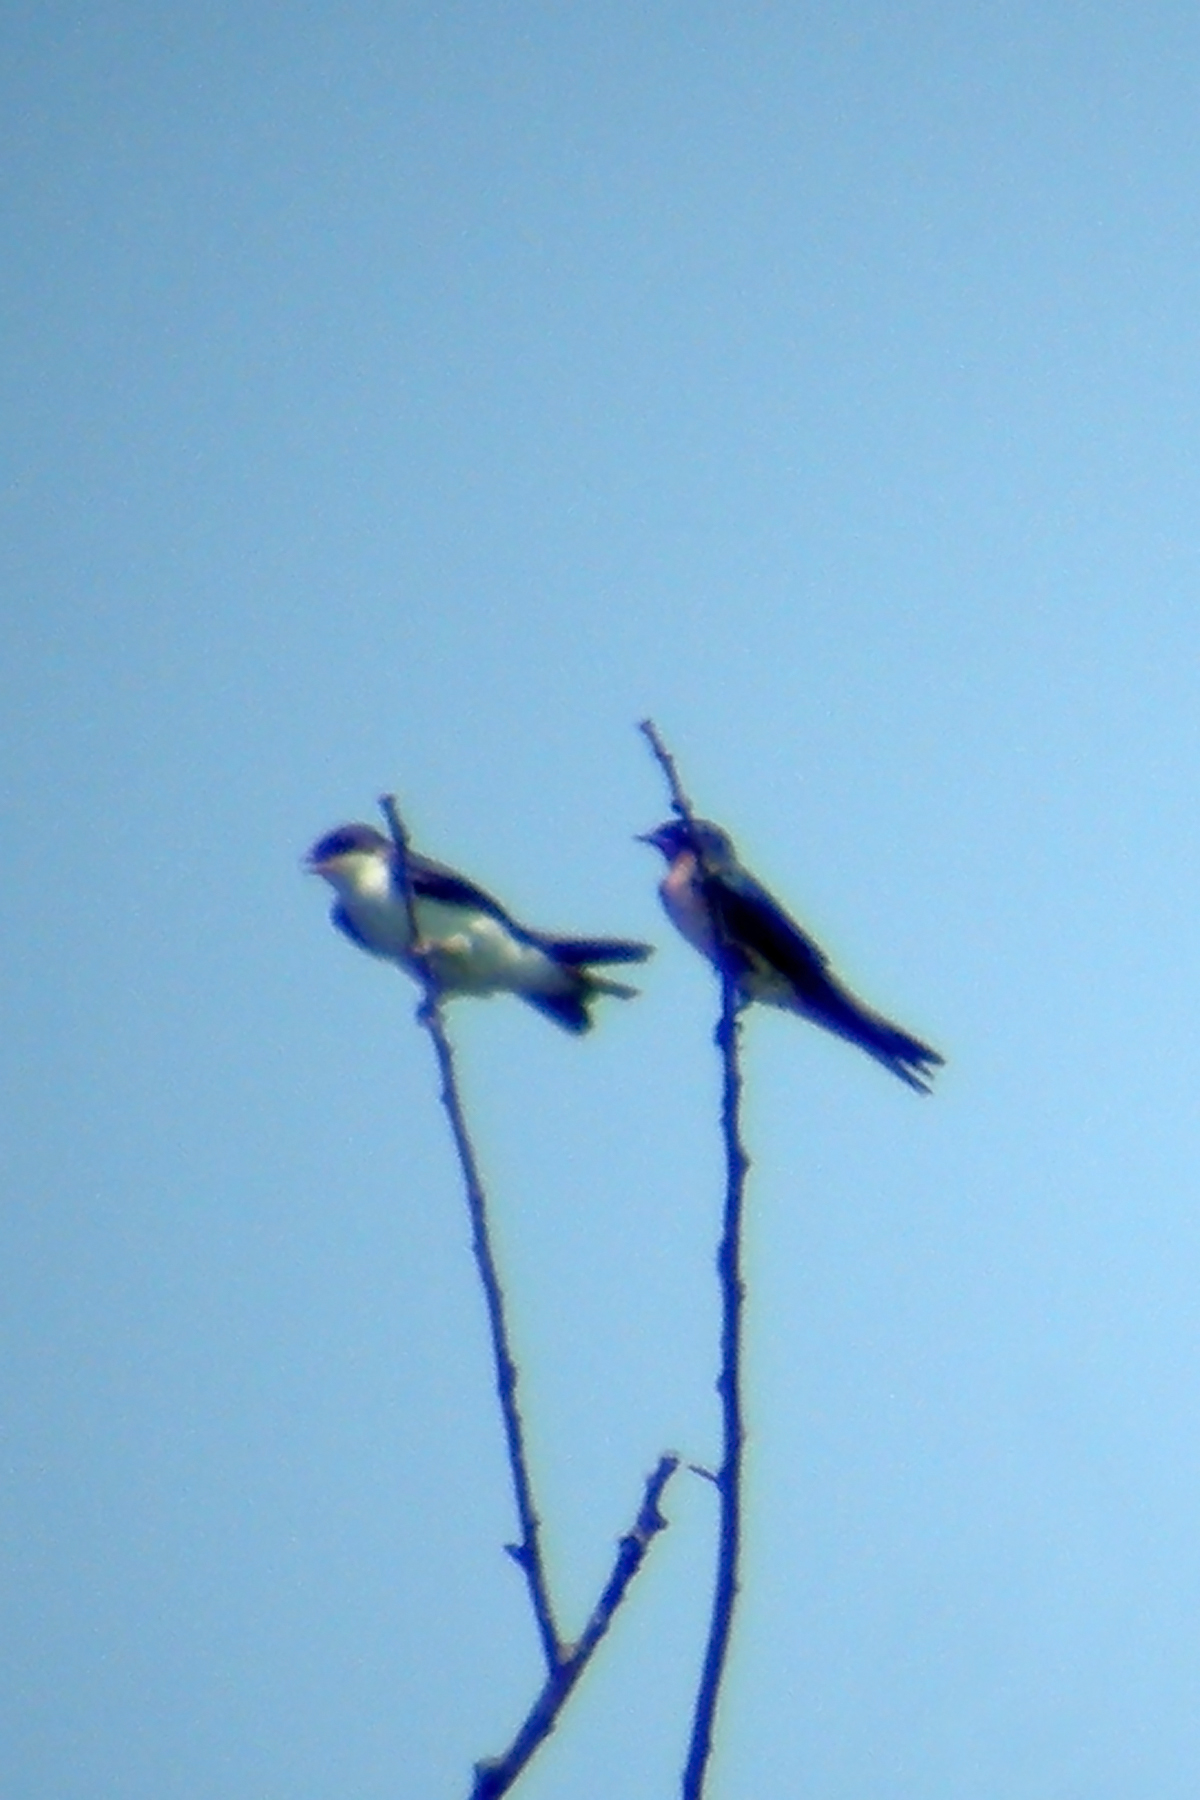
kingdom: Animalia
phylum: Chordata
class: Aves
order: Passeriformes
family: Hirundinidae
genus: Tachycineta
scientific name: Tachycineta bicolor
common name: Tree swallow
